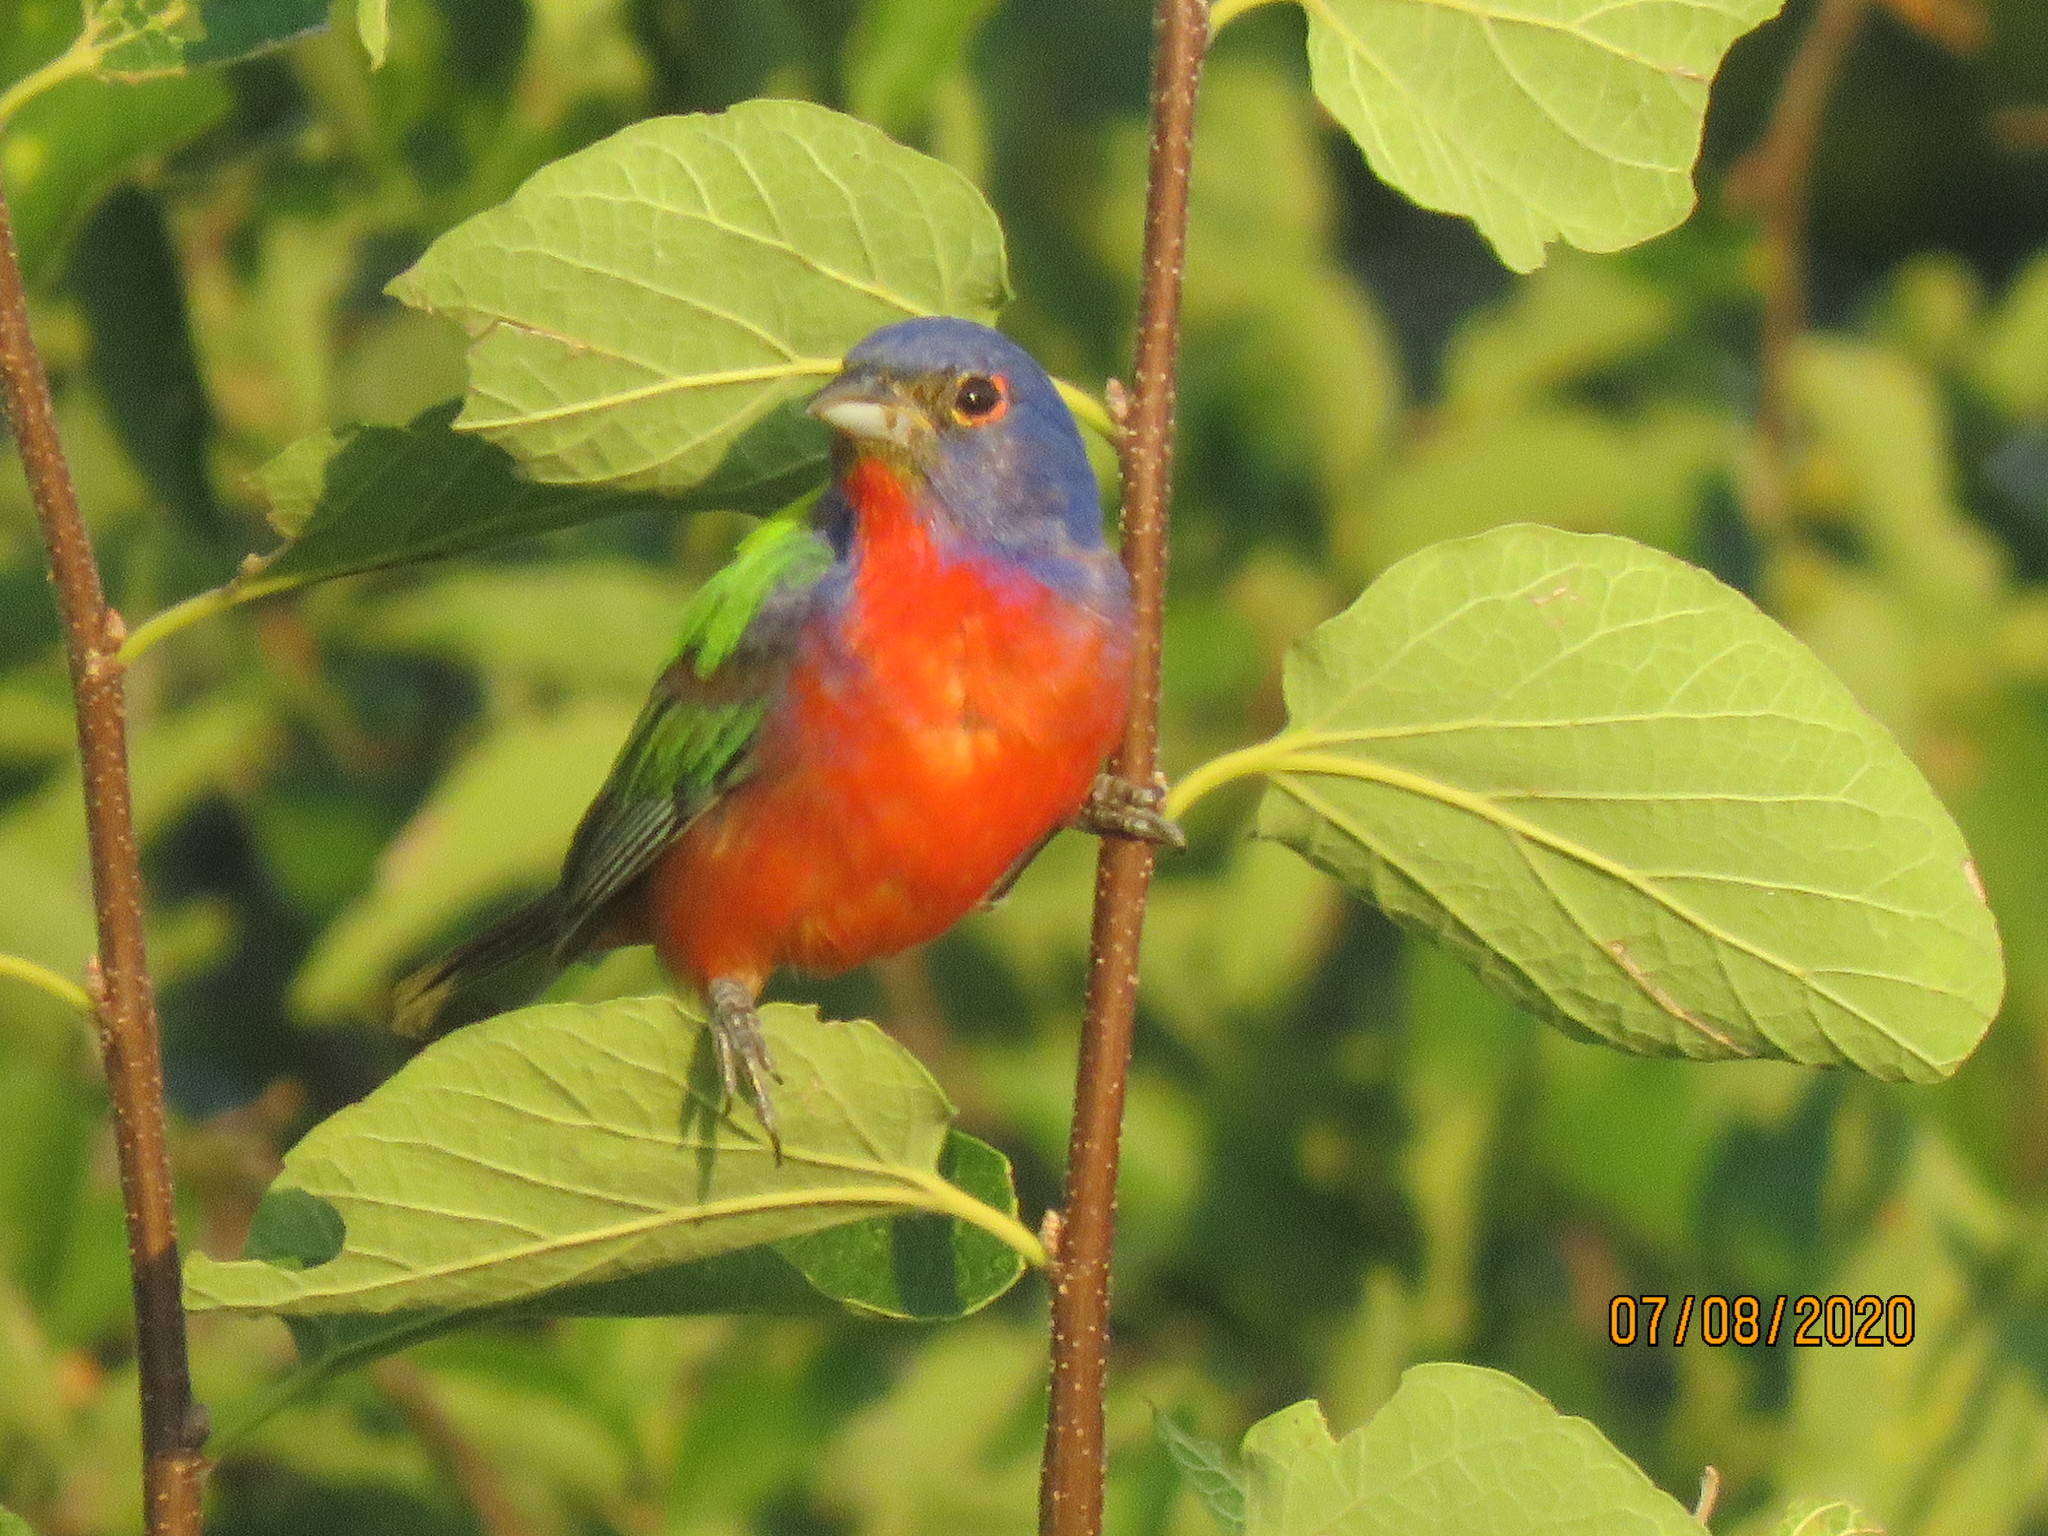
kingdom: Animalia
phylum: Chordata
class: Aves
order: Passeriformes
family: Cardinalidae
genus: Passerina
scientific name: Passerina ciris
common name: Painted bunting
